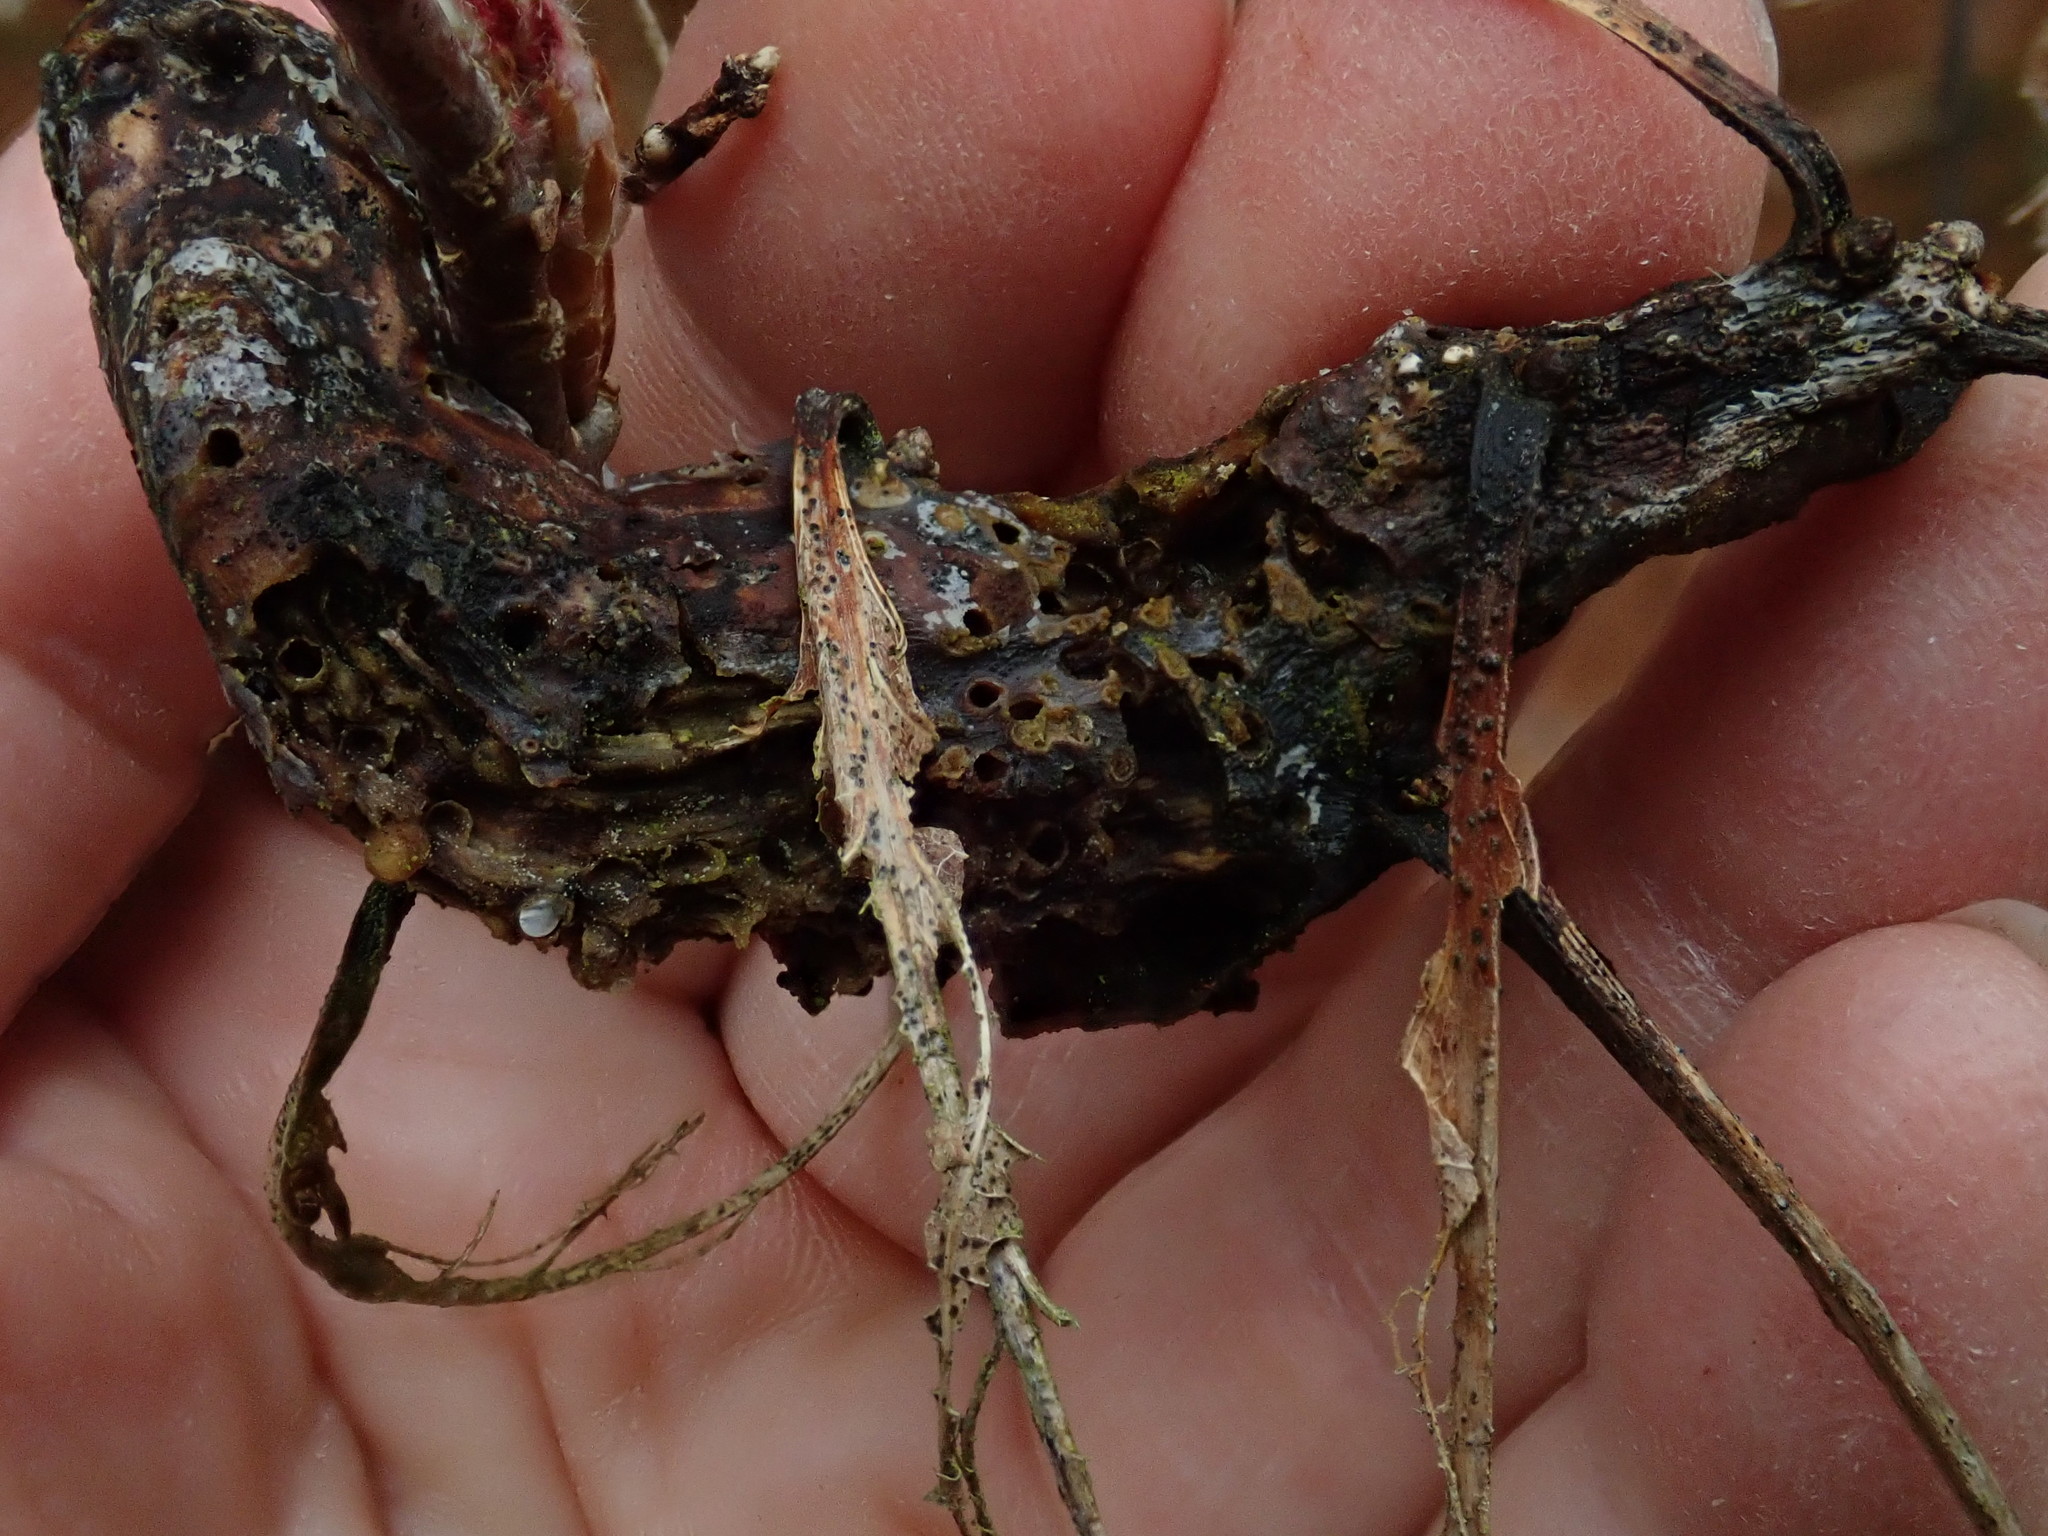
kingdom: Animalia
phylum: Arthropoda
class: Insecta
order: Hymenoptera
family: Cynipidae
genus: Neuroterus
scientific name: Neuroterus quercusbaccarum
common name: Common spangle gall
